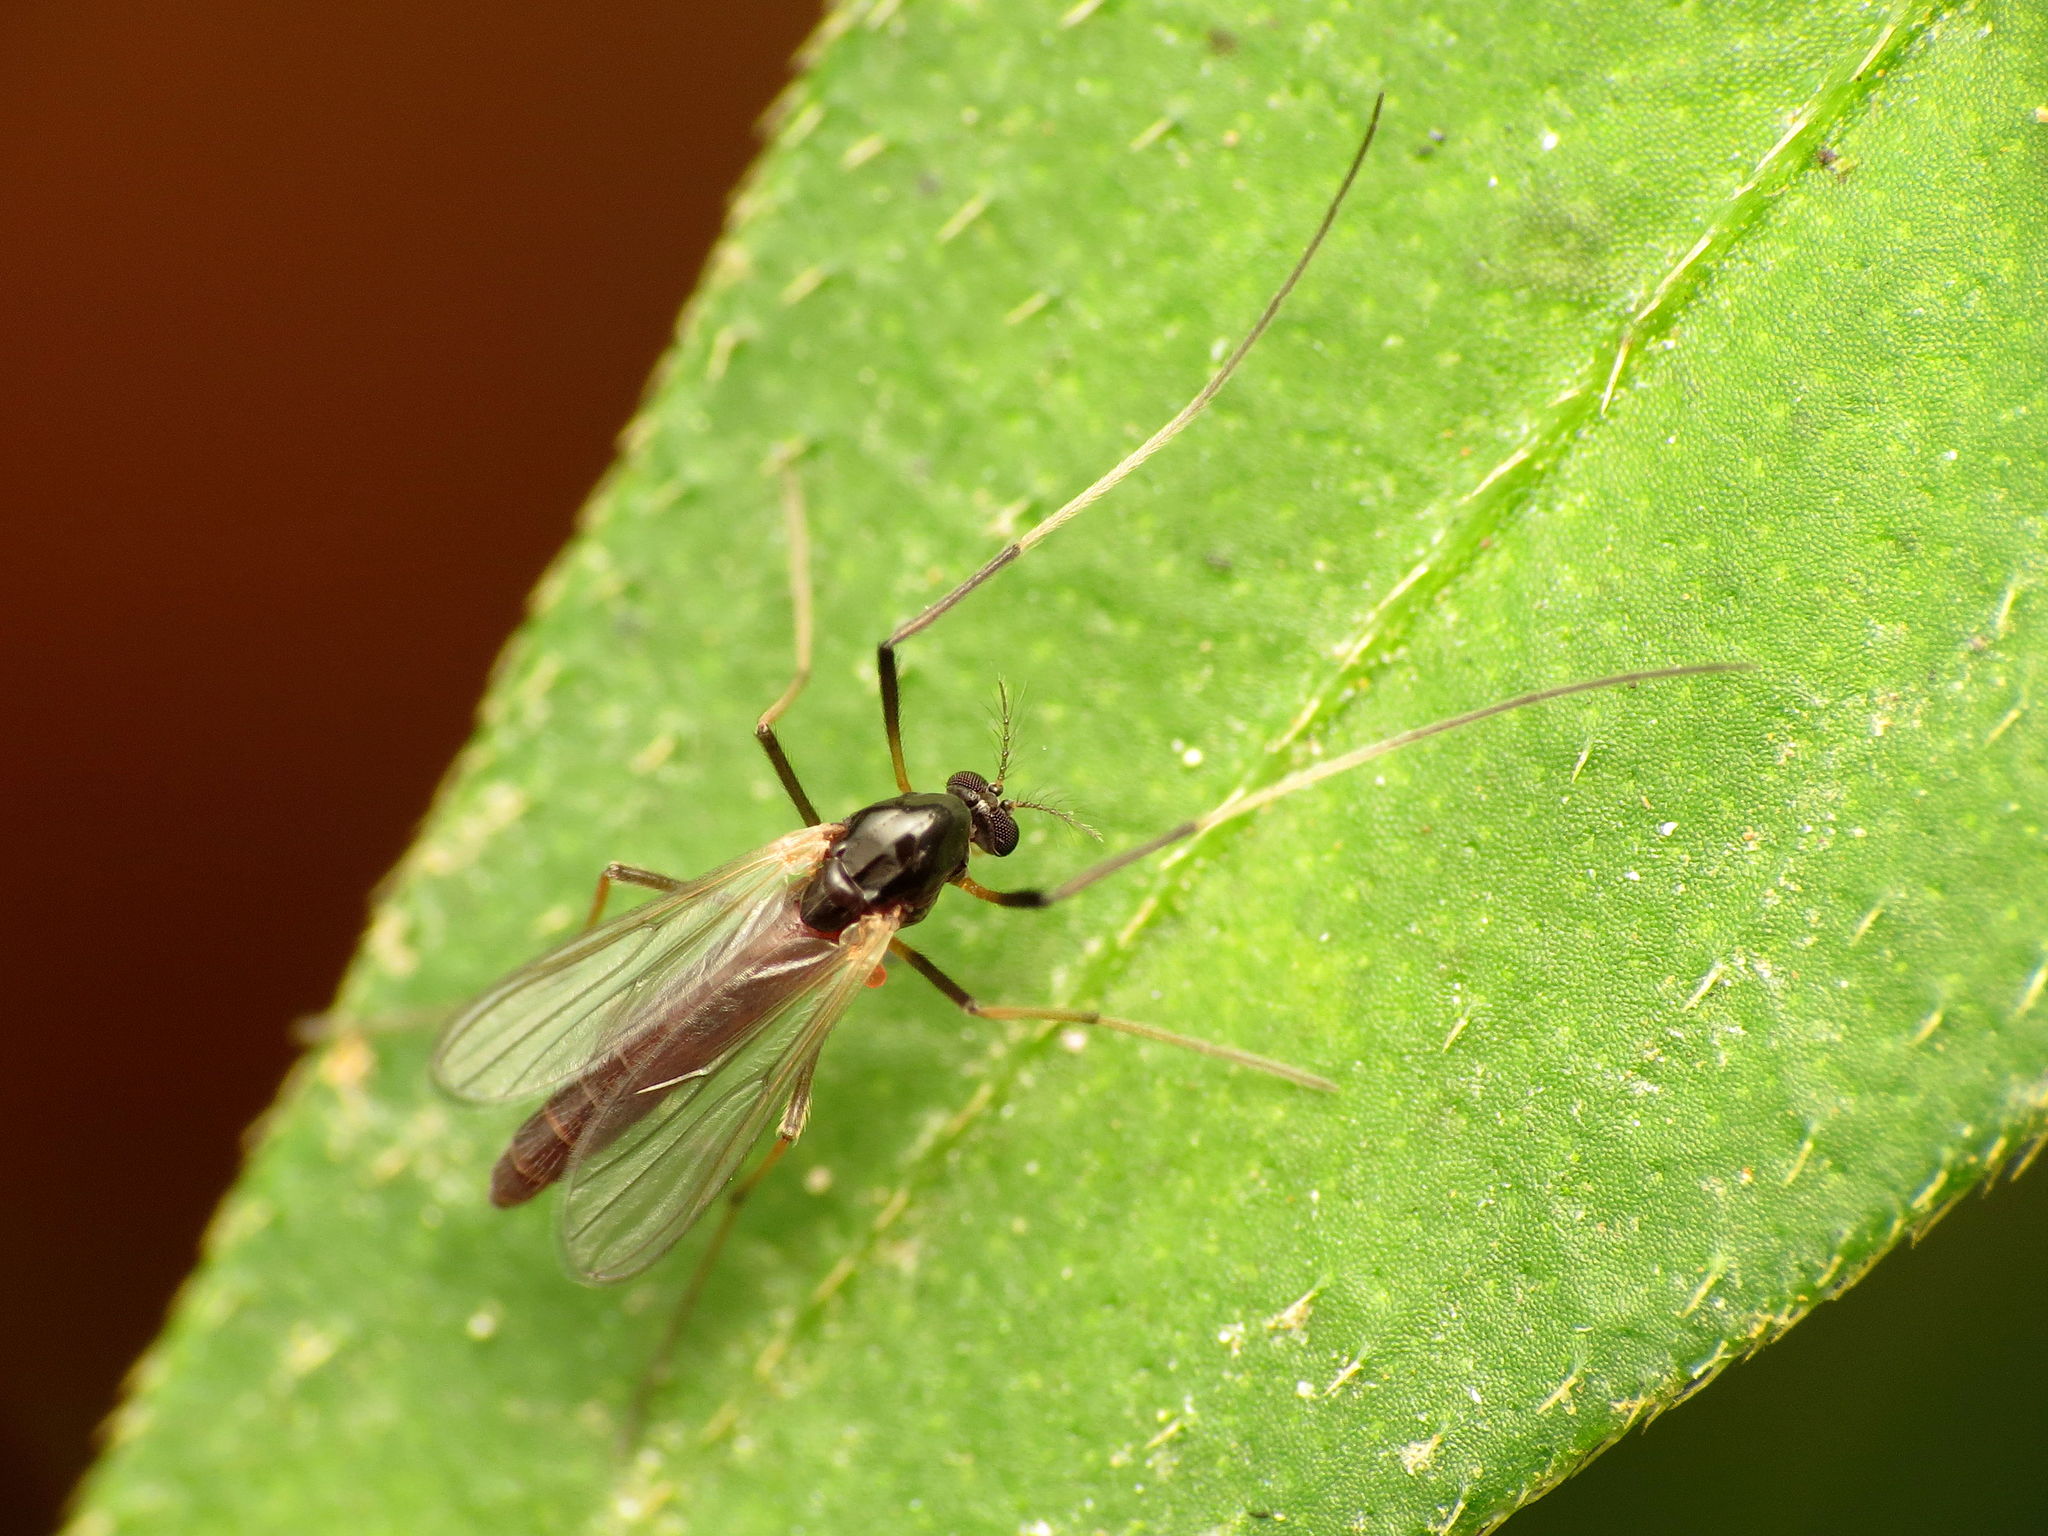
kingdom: Animalia
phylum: Arthropoda
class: Insecta
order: Diptera
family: Chironomidae
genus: Paratendipes
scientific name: Paratendipes albimanus
